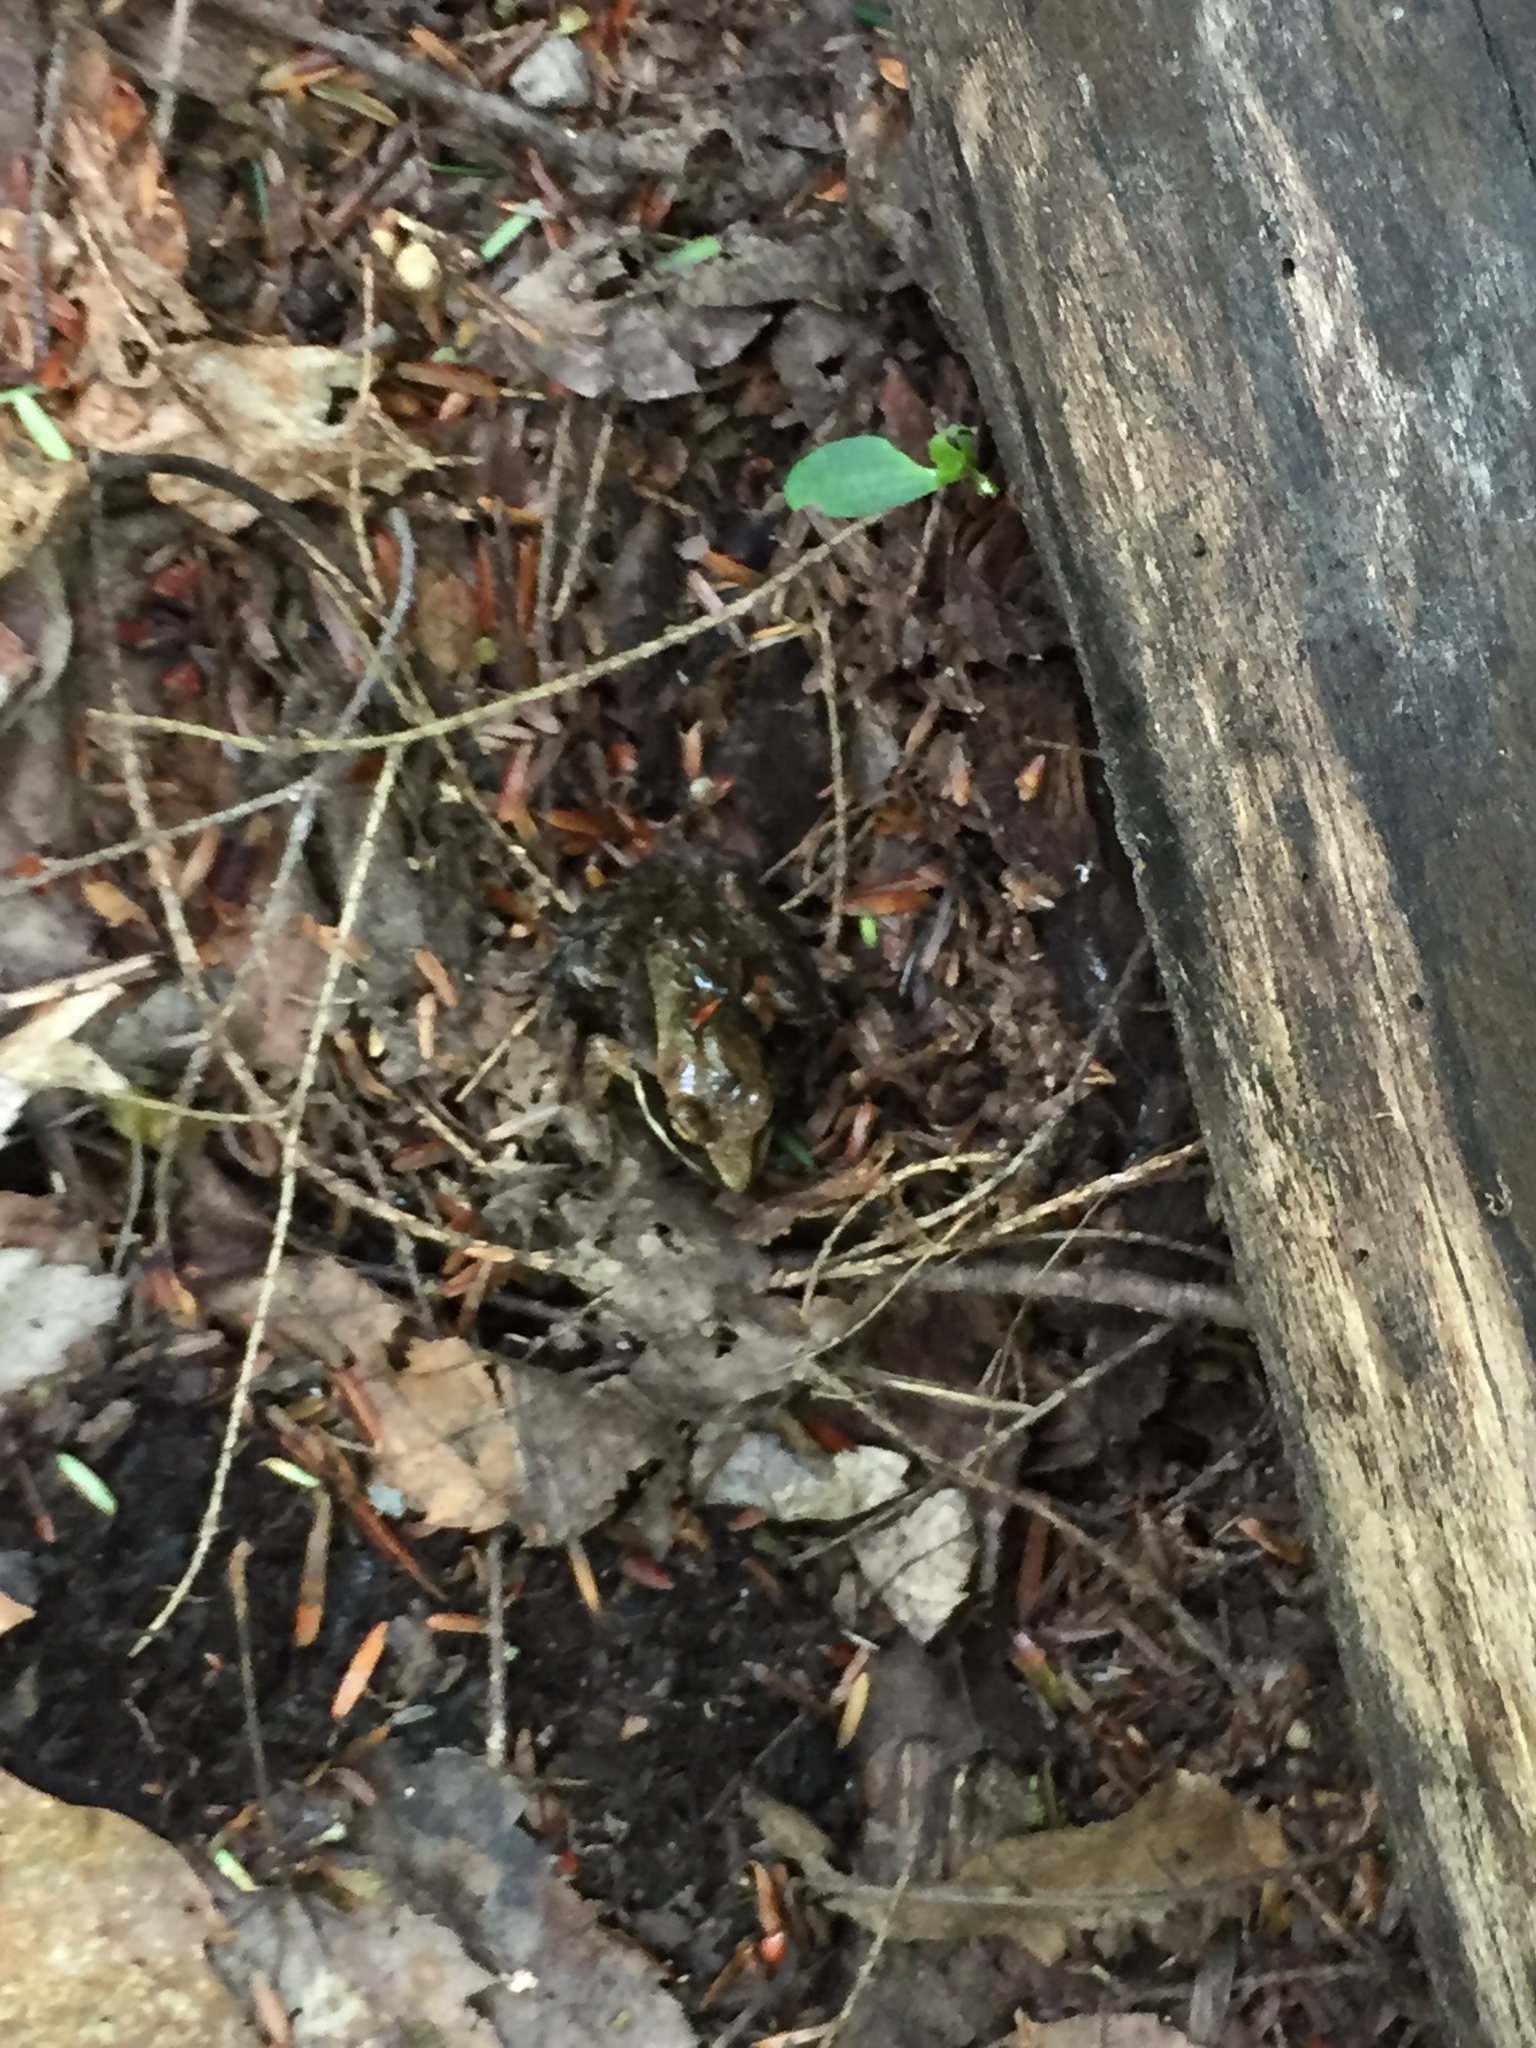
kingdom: Animalia
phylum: Chordata
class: Amphibia
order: Anura
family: Ranidae
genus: Lithobates
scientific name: Lithobates sylvaticus
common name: Wood frog
